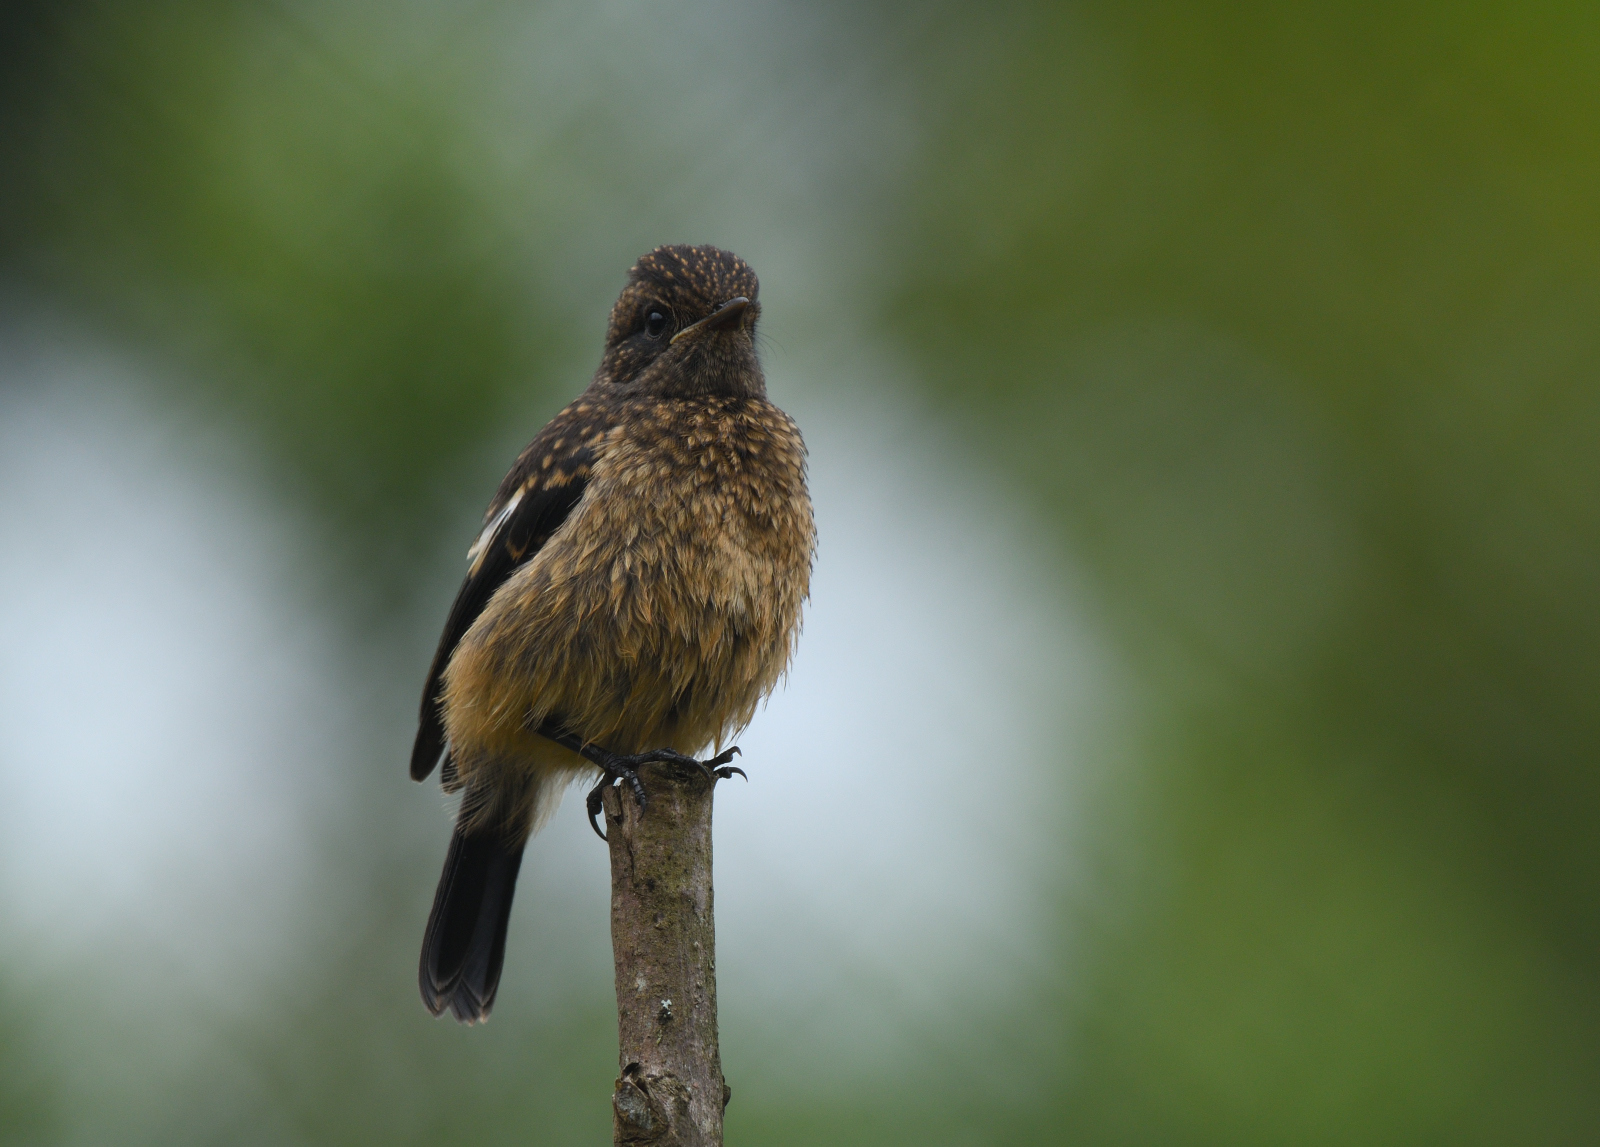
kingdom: Animalia
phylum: Chordata
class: Aves
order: Passeriformes
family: Muscicapidae
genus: Saxicola
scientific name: Saxicola caprata
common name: Pied bush chat
